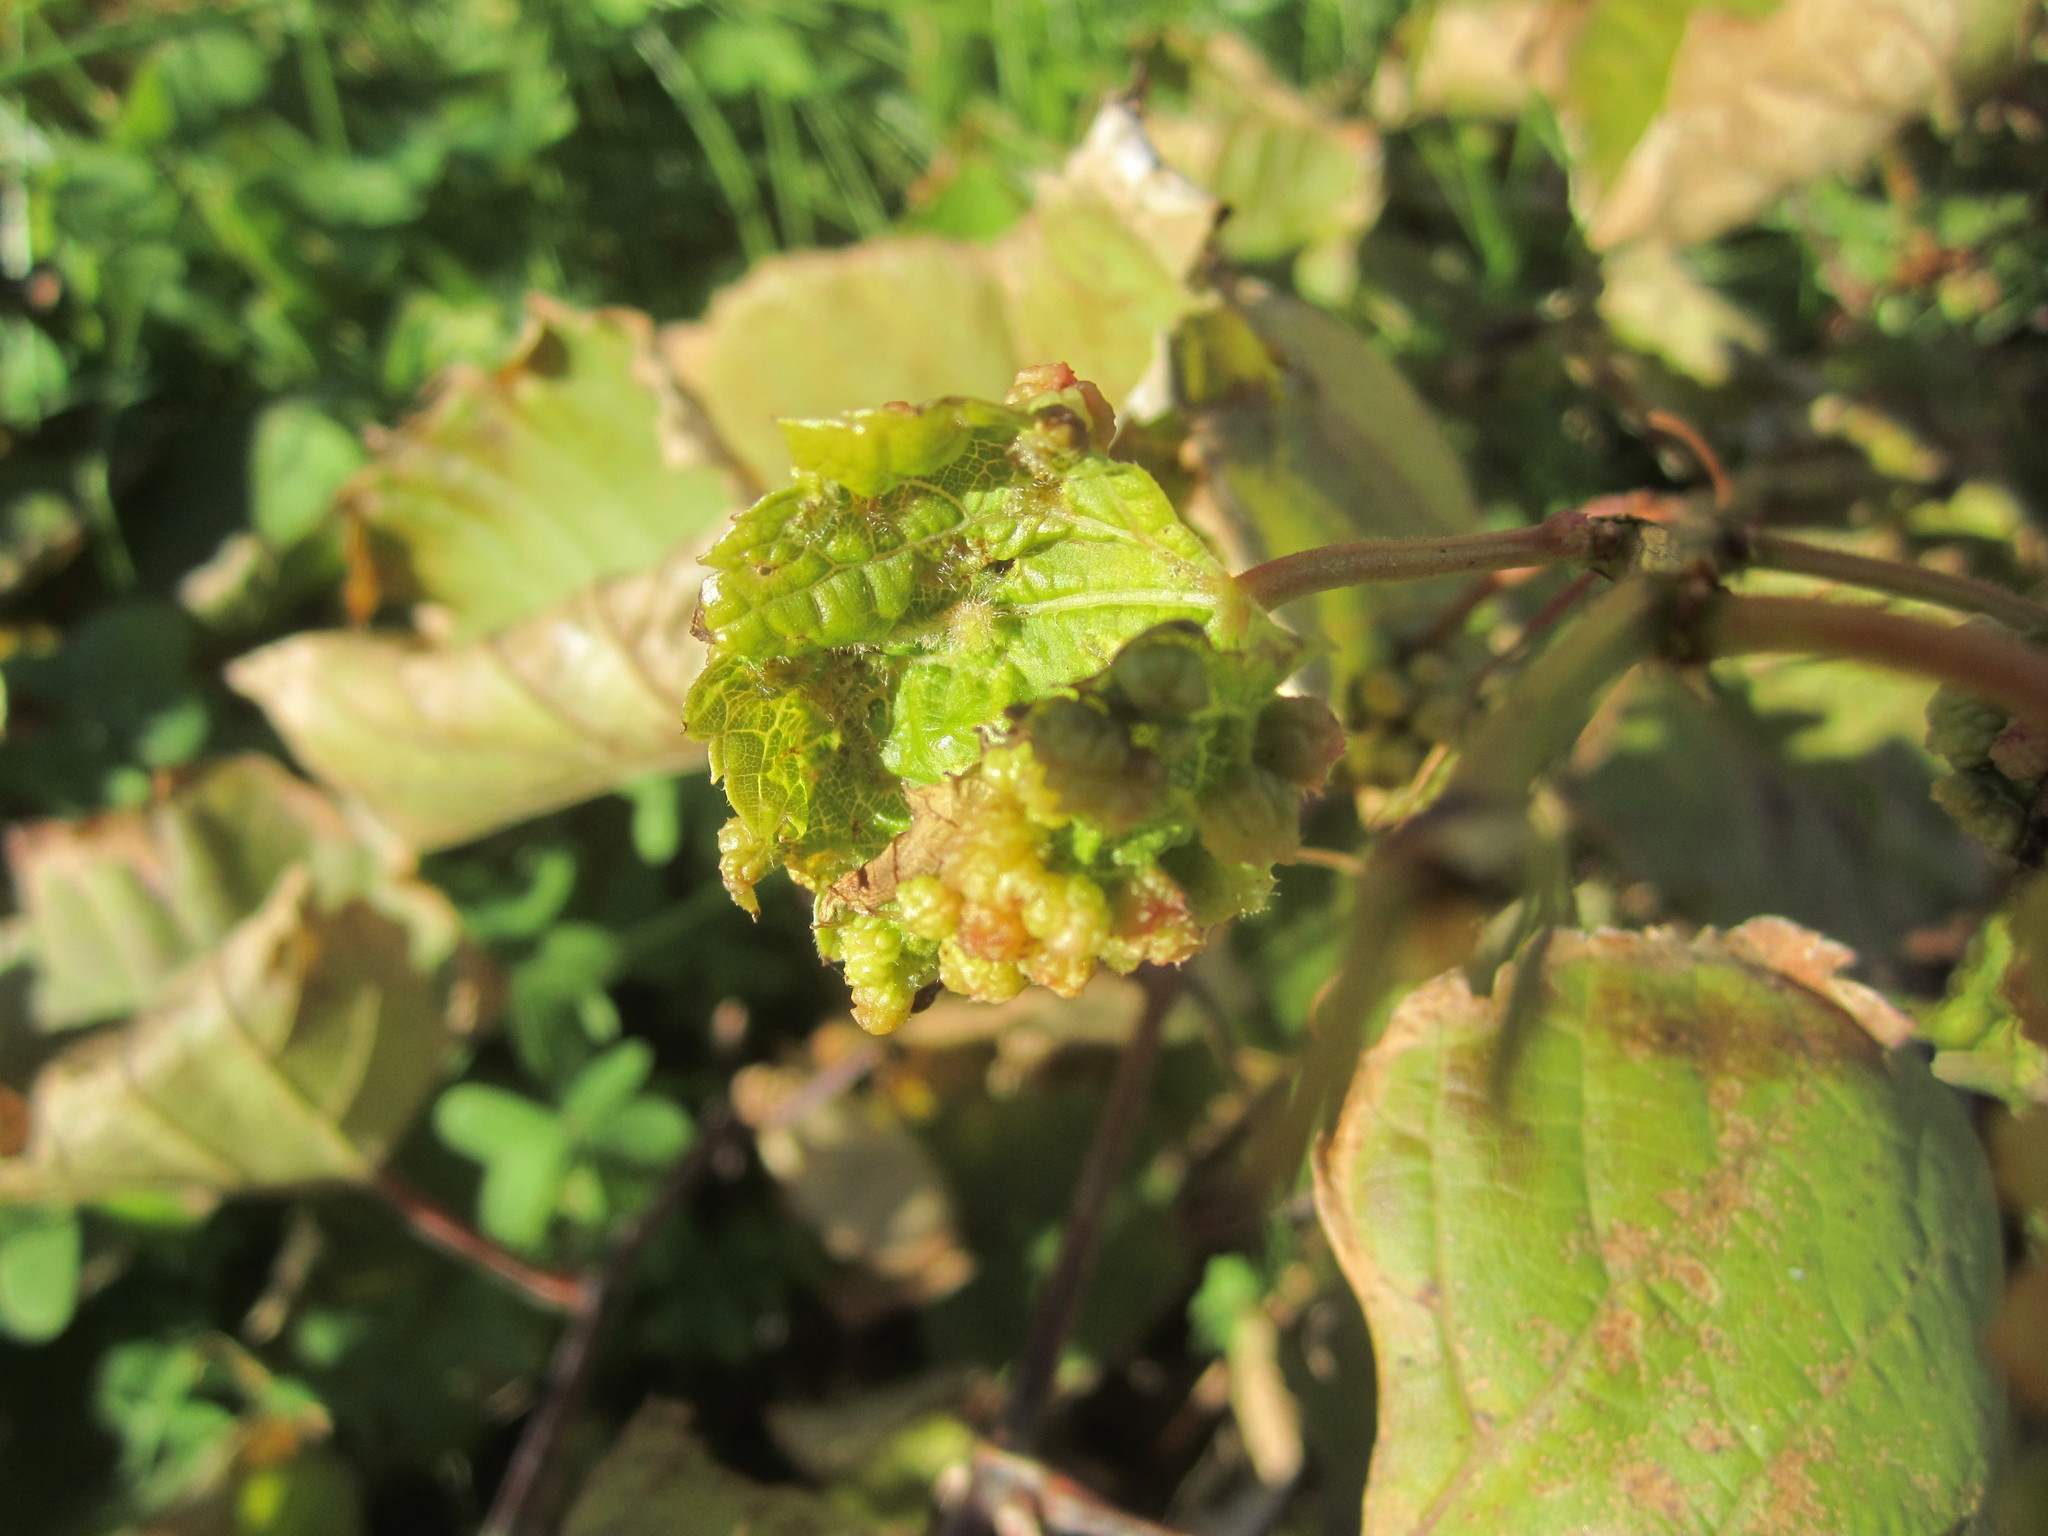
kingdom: Animalia
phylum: Arthropoda
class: Insecta
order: Hemiptera
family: Phylloxeridae
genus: Daktulosphaira
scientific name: Daktulosphaira vitifoliae
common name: Grape phylloxera
